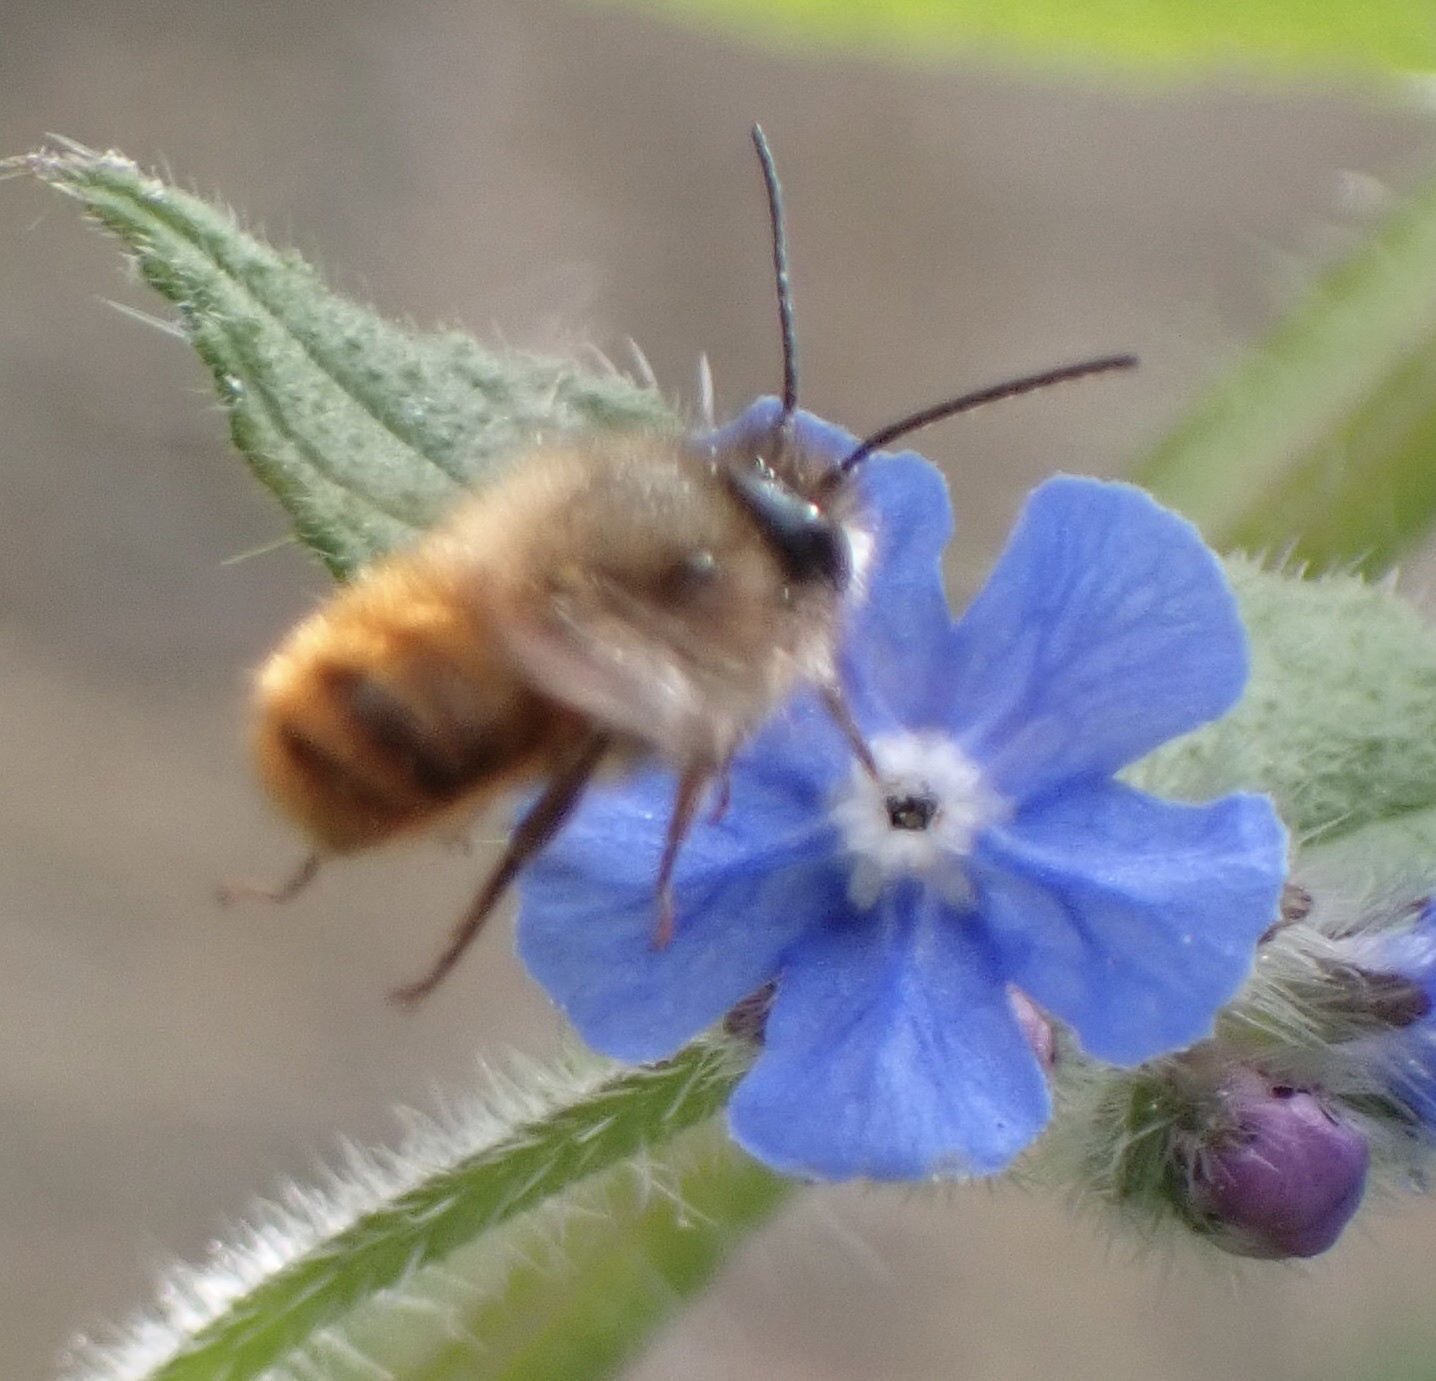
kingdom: Animalia
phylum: Arthropoda
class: Insecta
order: Hymenoptera
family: Megachilidae
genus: Osmia
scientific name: Osmia bicornis
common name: Red mason bee
